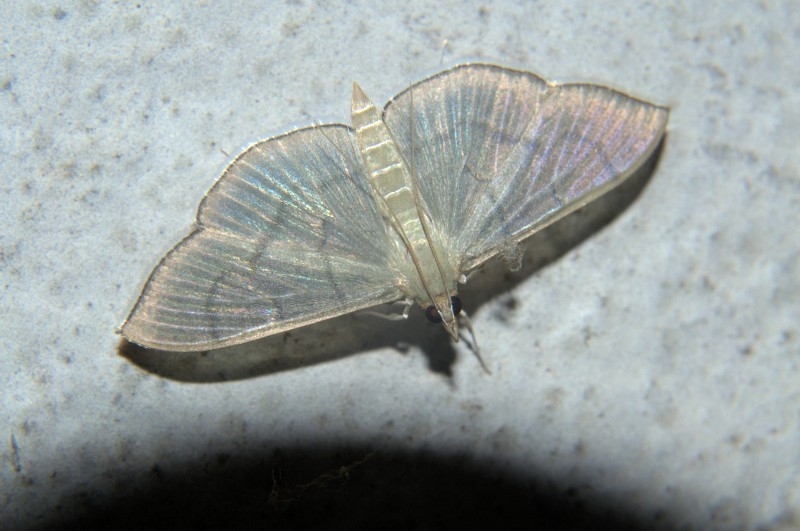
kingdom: Animalia
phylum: Arthropoda
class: Insecta
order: Lepidoptera
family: Crambidae
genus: Lamprophaia
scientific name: Lamprophaia ablactalis
